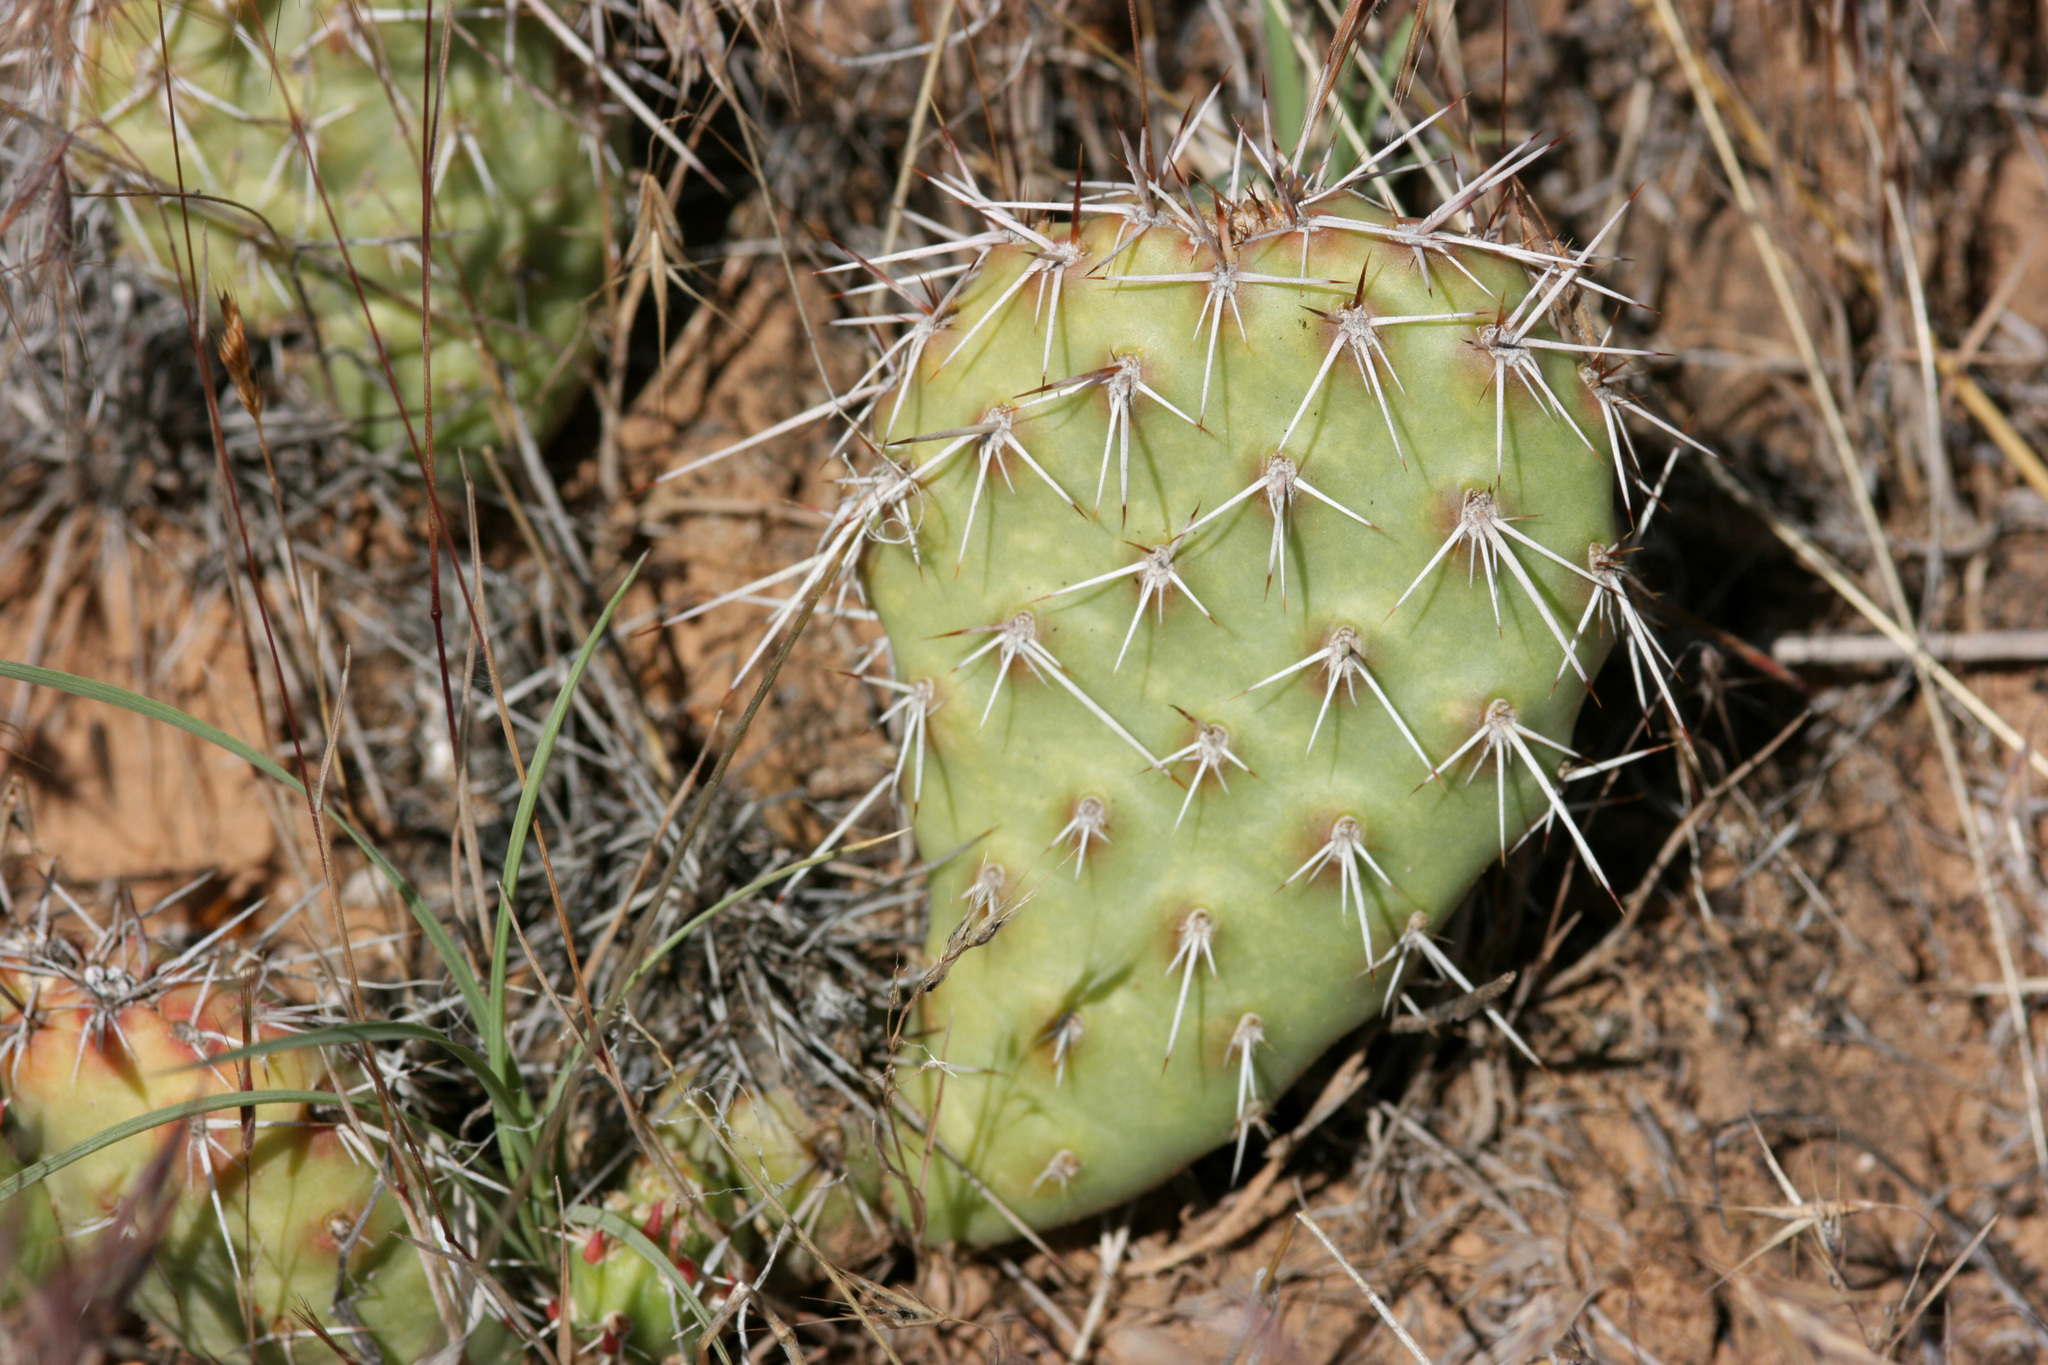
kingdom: Plantae
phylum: Tracheophyta
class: Magnoliopsida
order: Caryophyllales
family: Cactaceae
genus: Opuntia
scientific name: Opuntia polyacantha
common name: Plains prickly-pear
